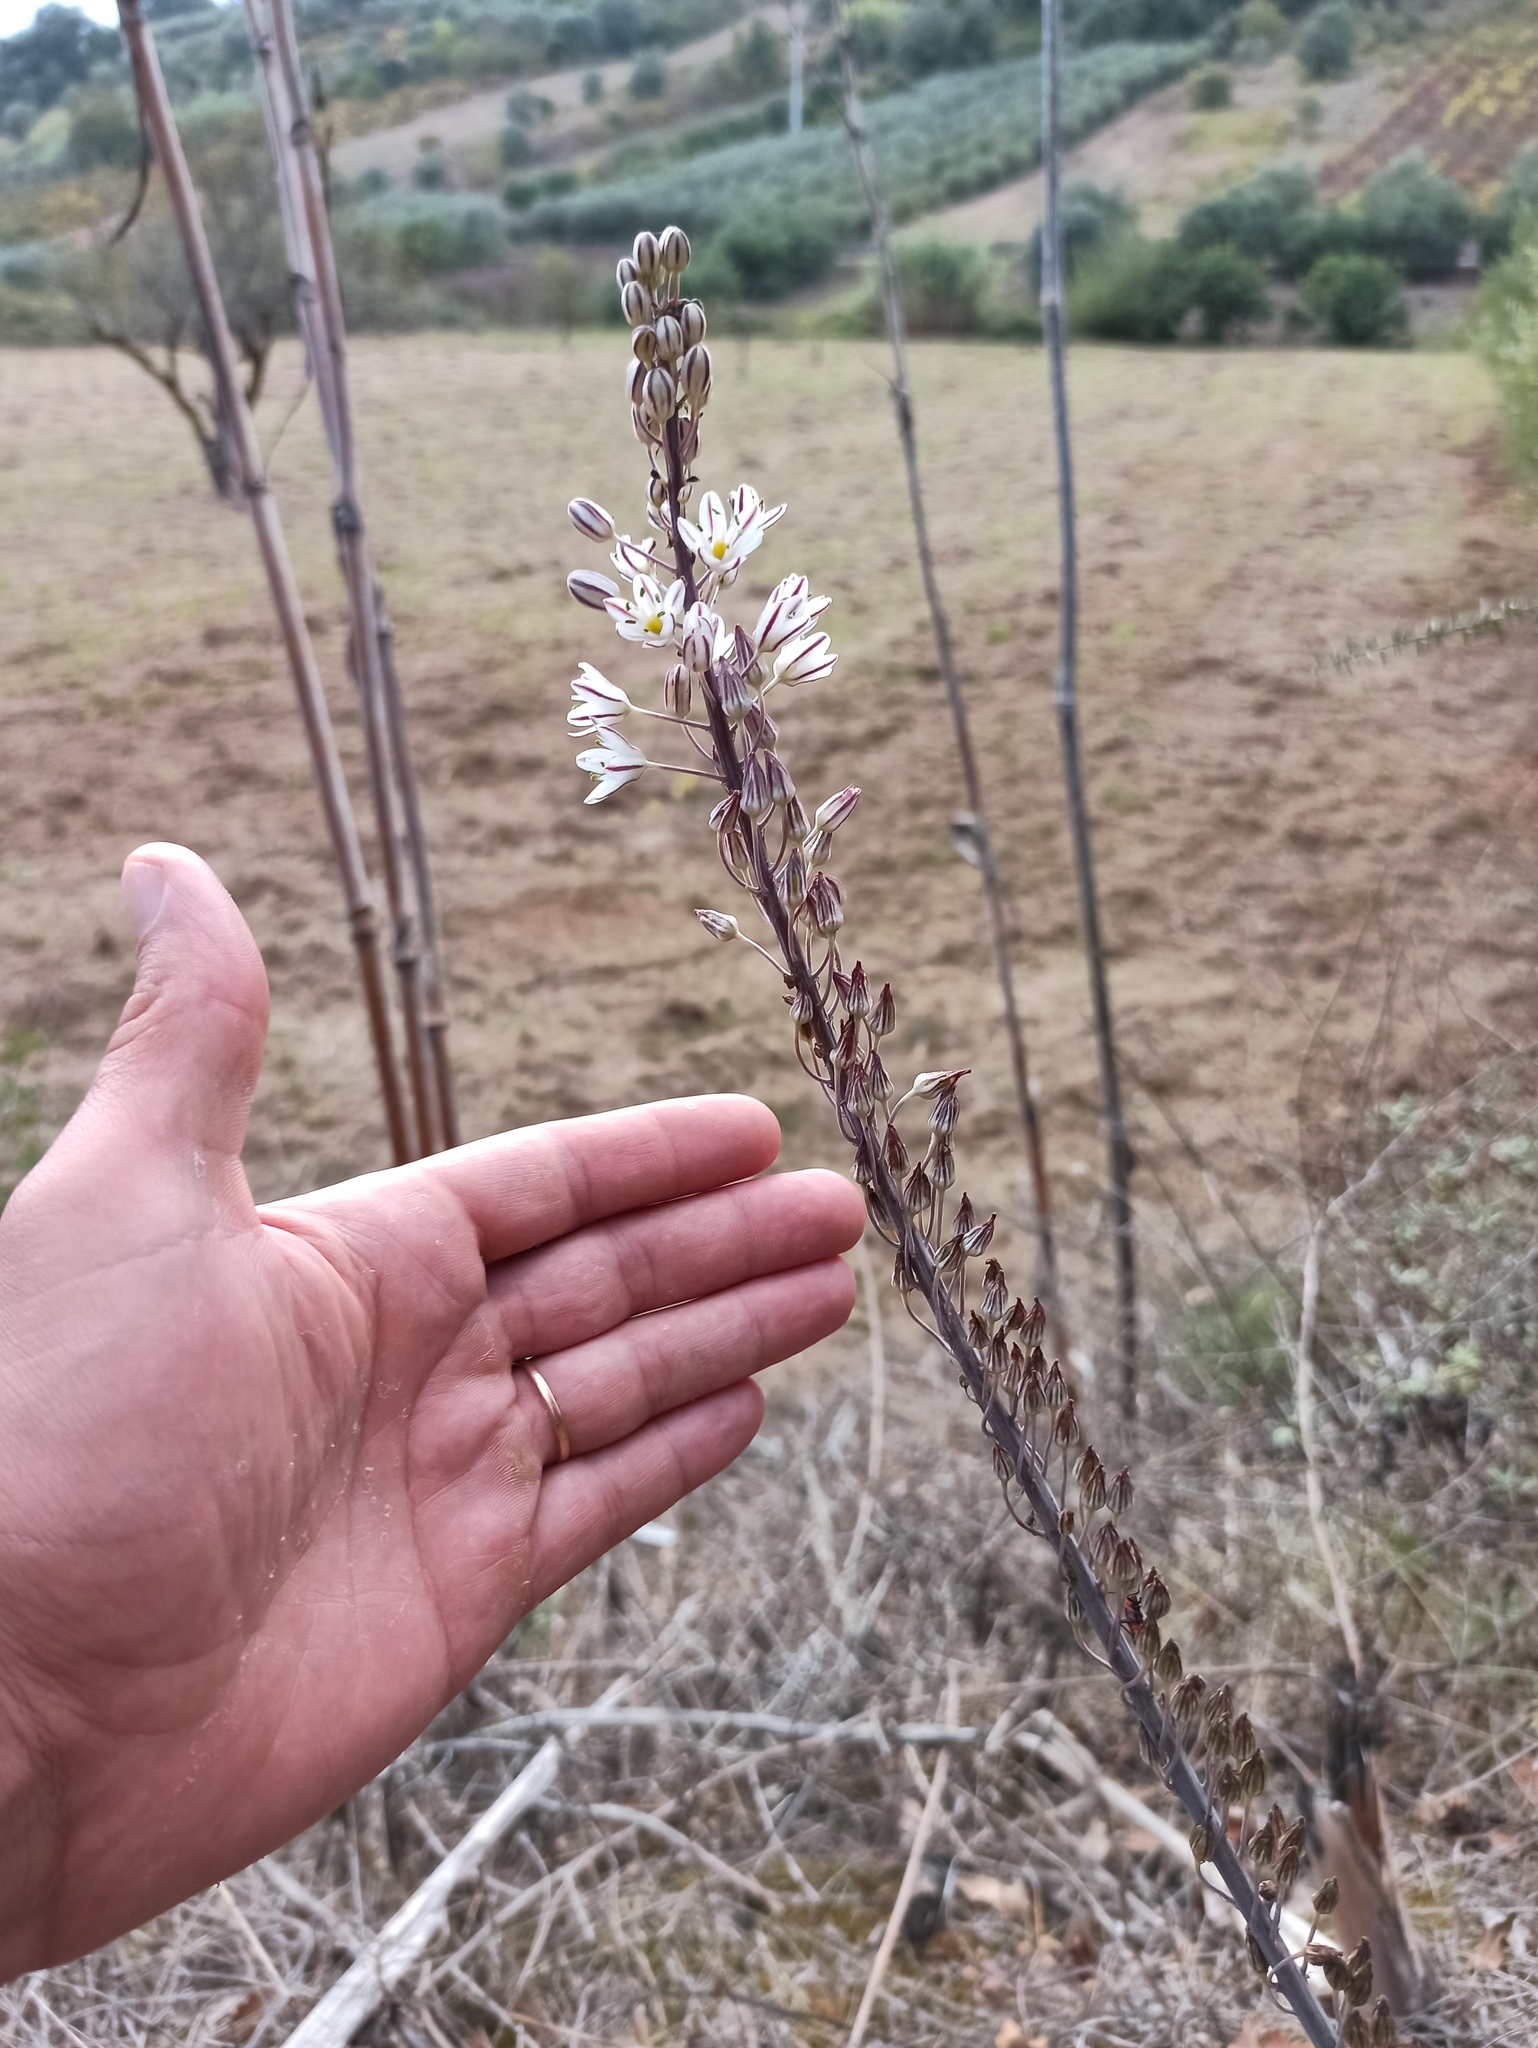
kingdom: Plantae
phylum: Tracheophyta
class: Liliopsida
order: Asparagales
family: Asparagaceae
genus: Drimia
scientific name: Drimia maritima
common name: Maritime squill
